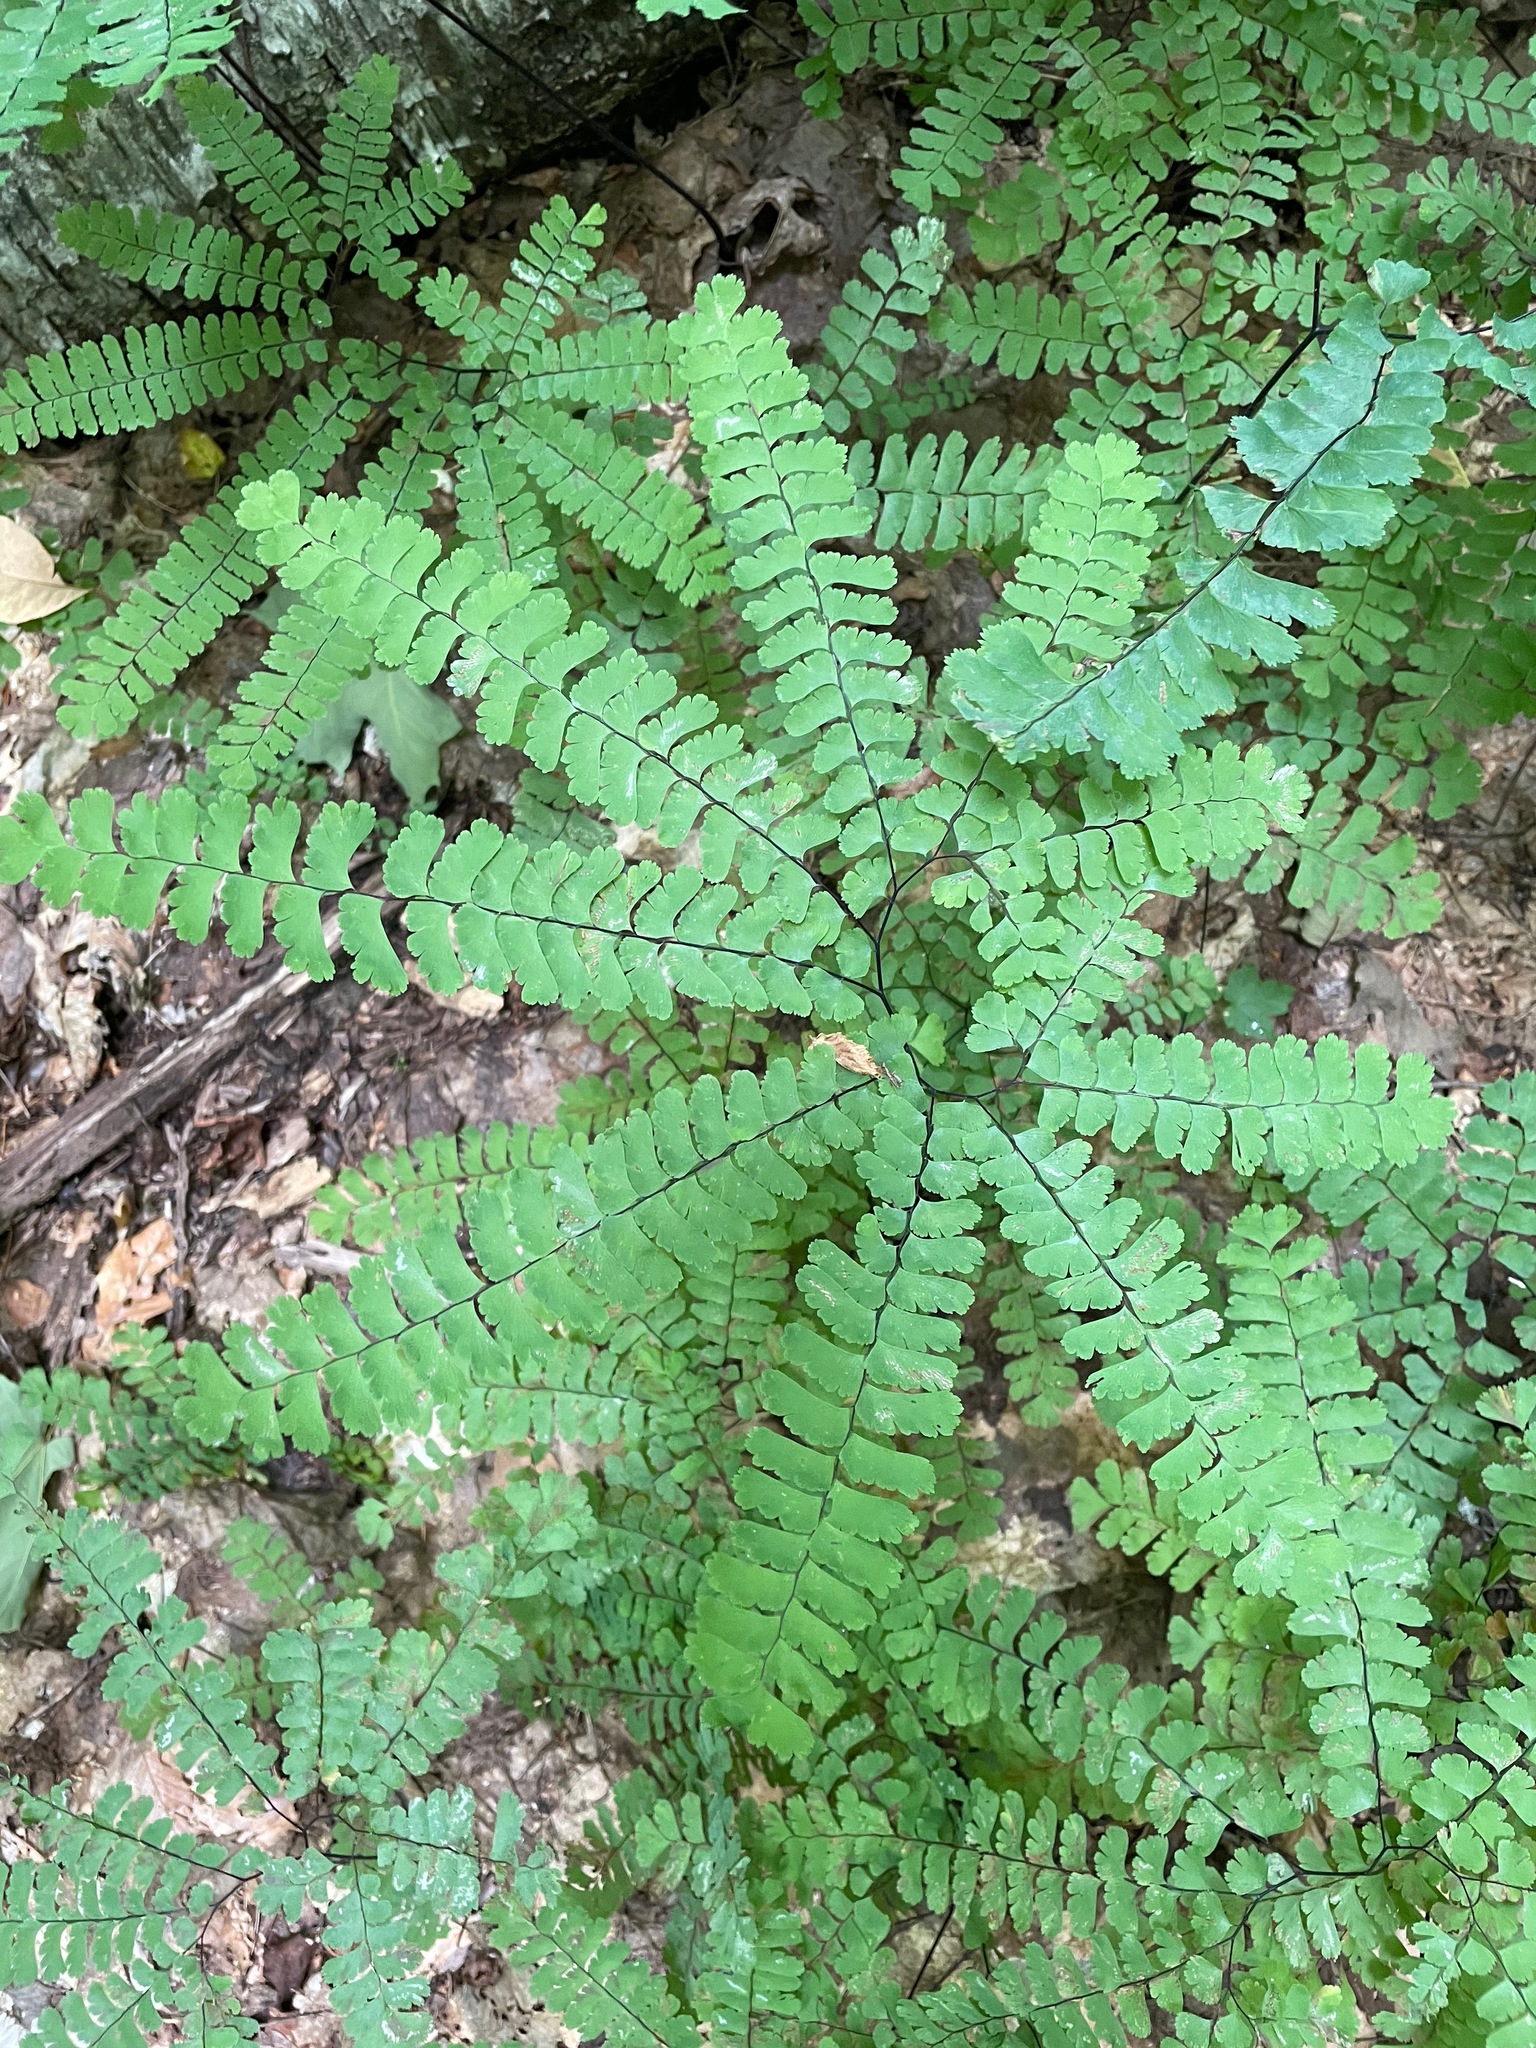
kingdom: Plantae
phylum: Tracheophyta
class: Polypodiopsida
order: Polypodiales
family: Pteridaceae
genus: Adiantum
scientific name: Adiantum pedatum
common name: Five-finger fern
